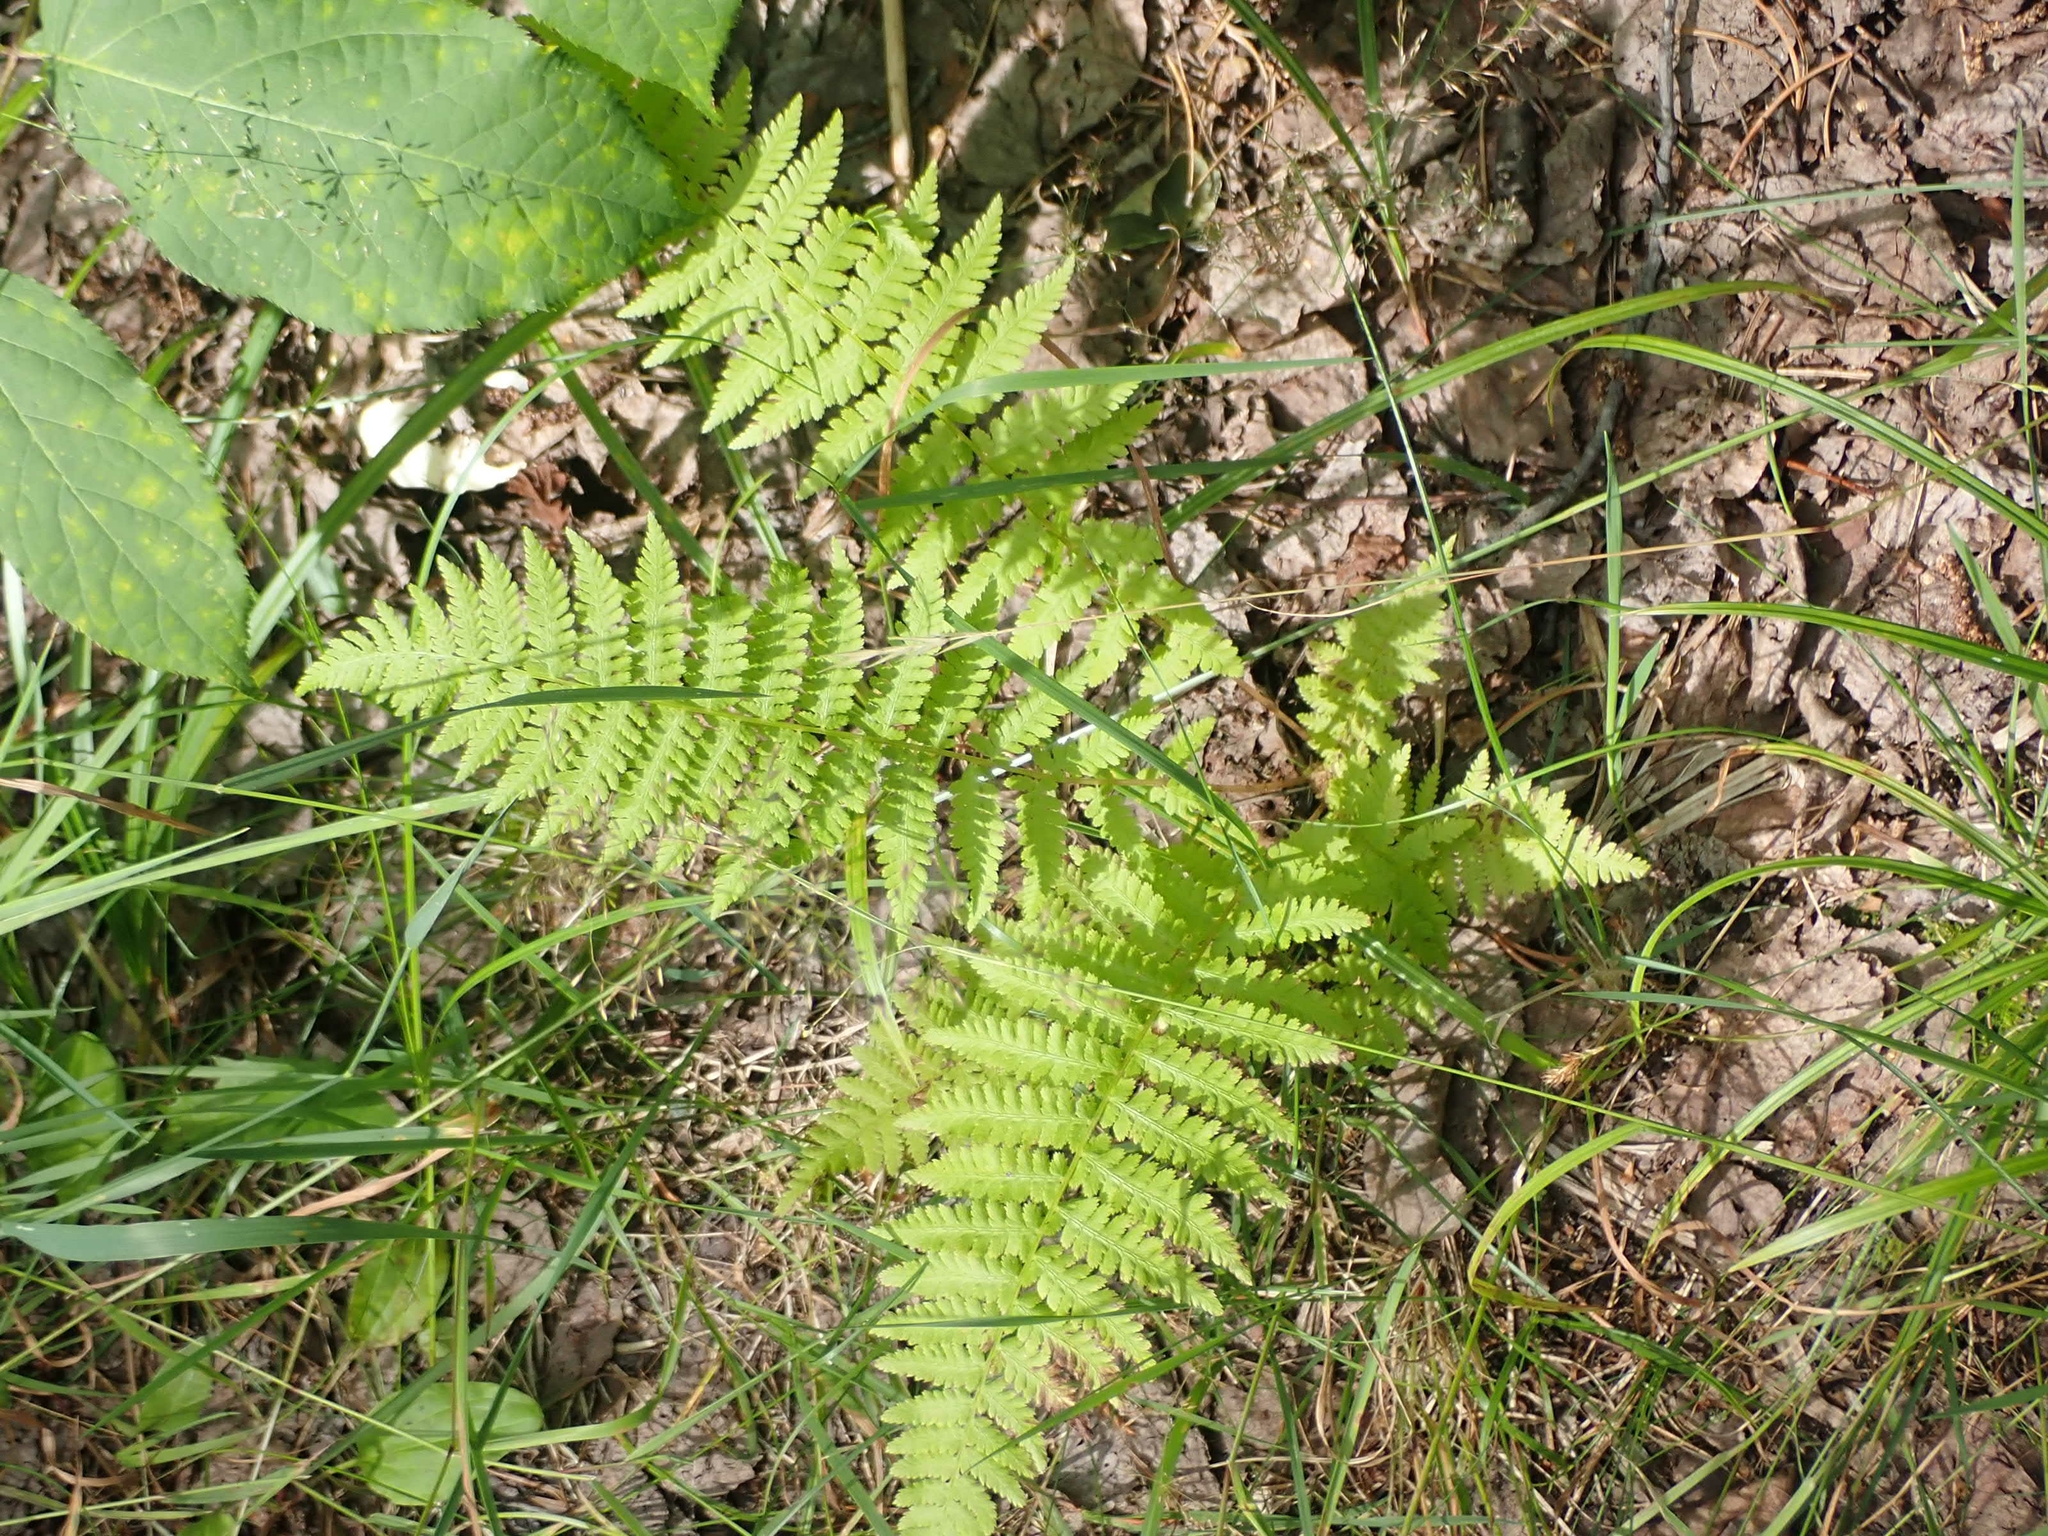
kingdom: Plantae
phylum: Tracheophyta
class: Polypodiopsida
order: Polypodiales
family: Athyriaceae
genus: Athyrium
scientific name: Athyrium angustum
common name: Northern lady fern
